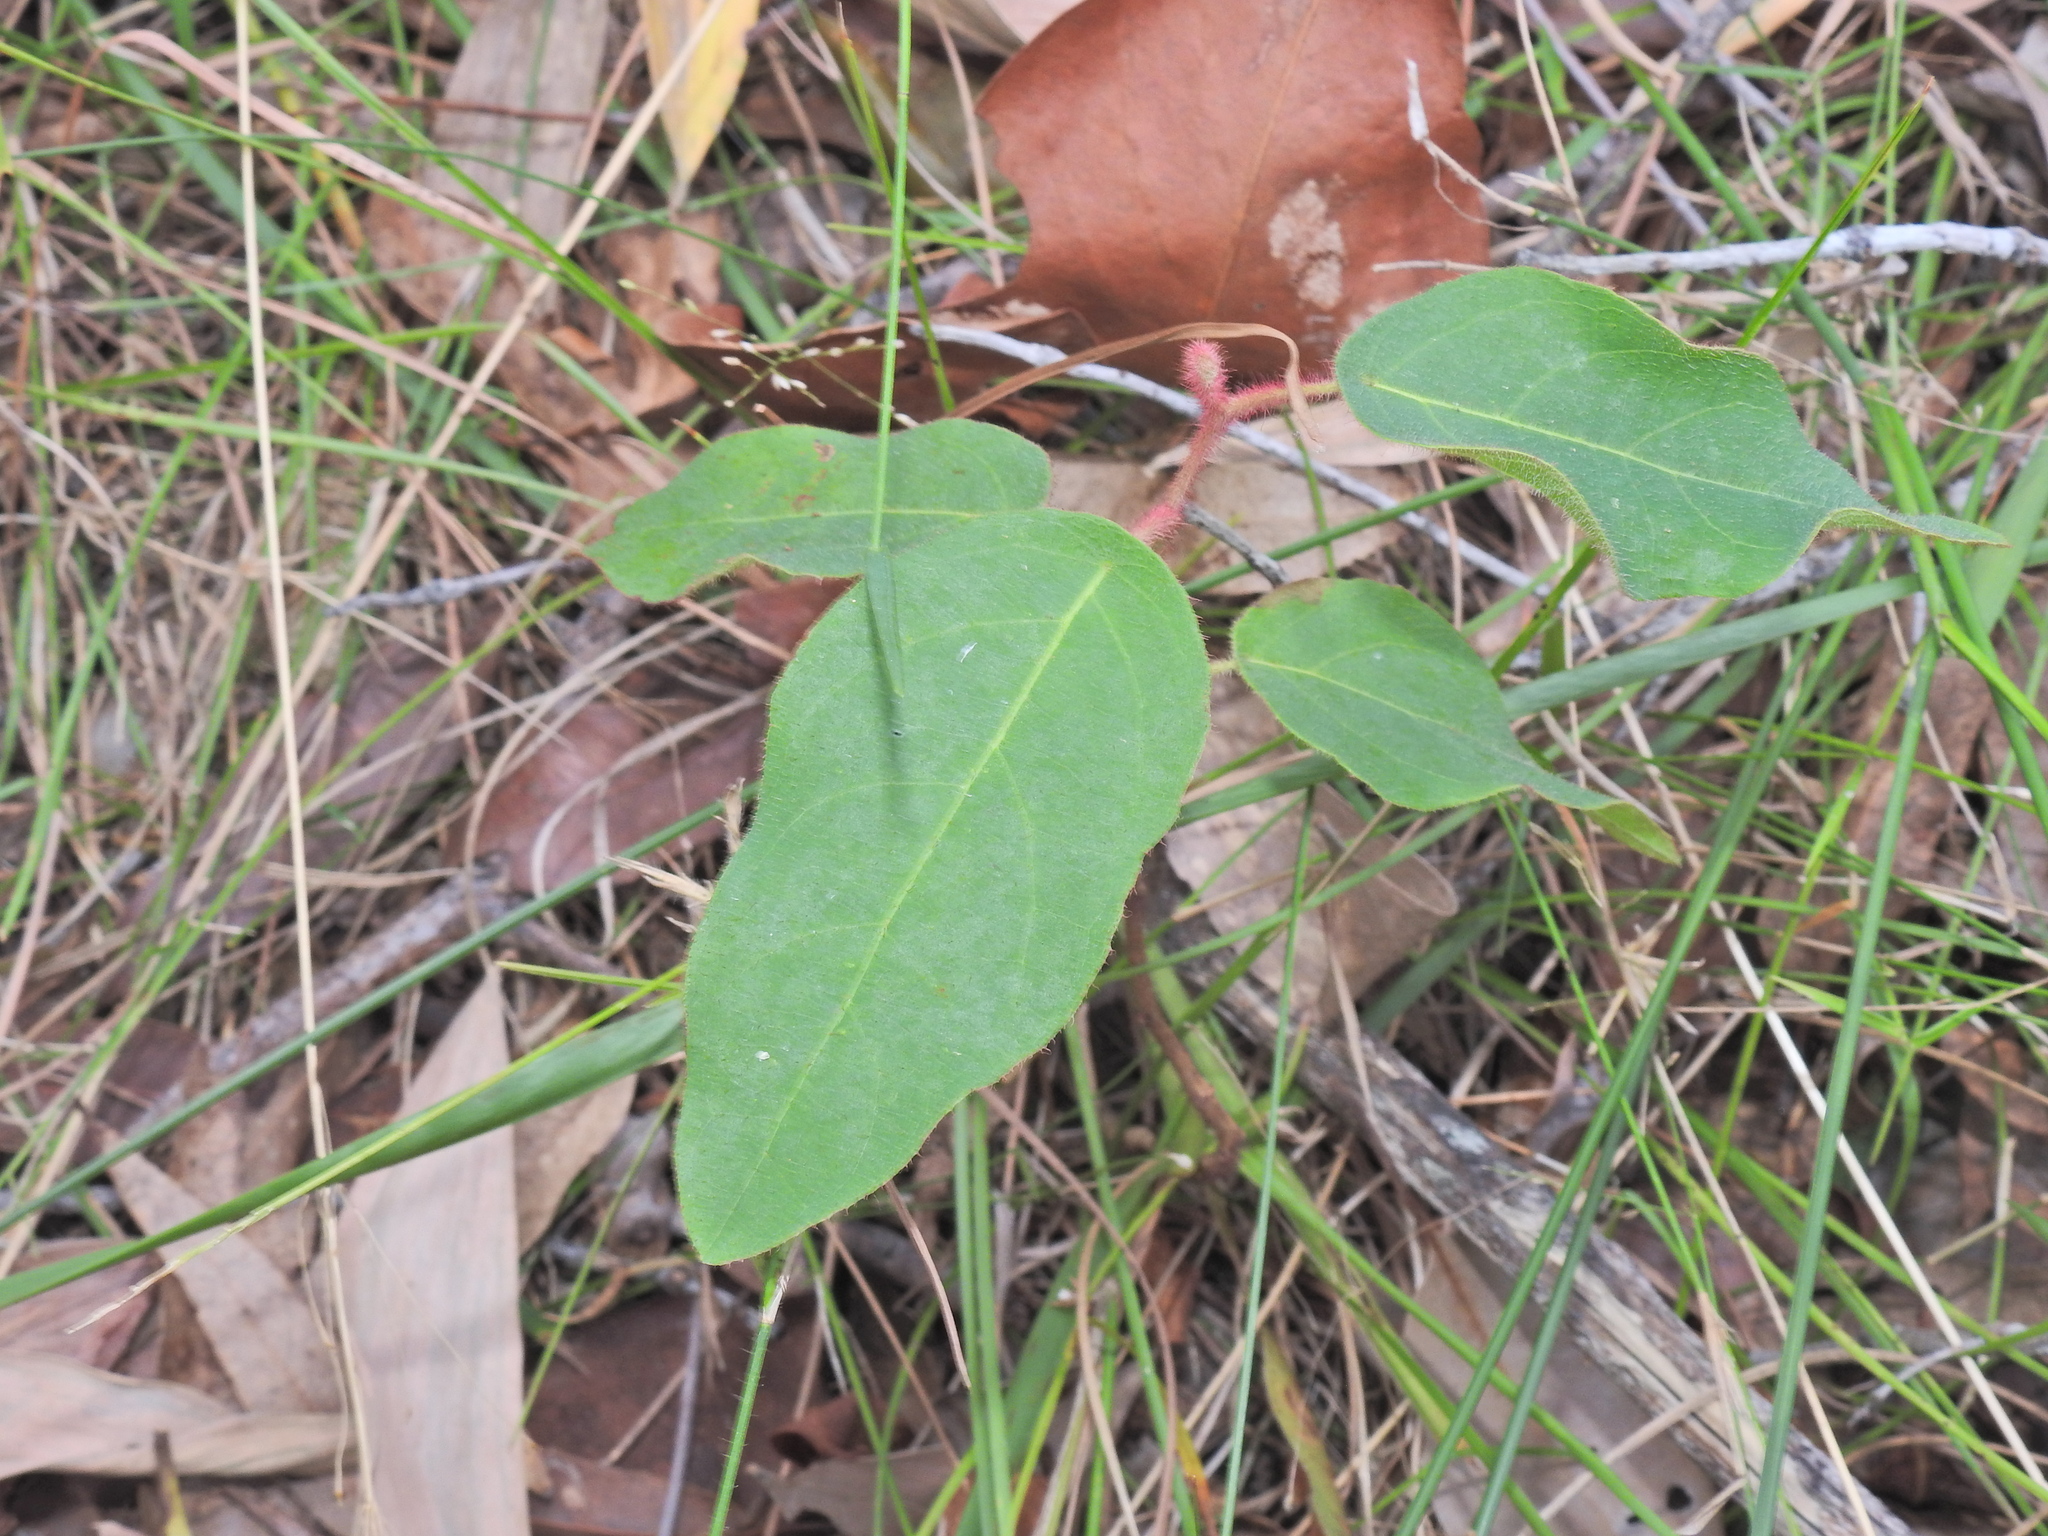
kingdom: Plantae
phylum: Tracheophyta
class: Magnoliopsida
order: Myrtales
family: Myrtaceae
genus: Corymbia
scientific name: Corymbia torelliana
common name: Cadaghi
